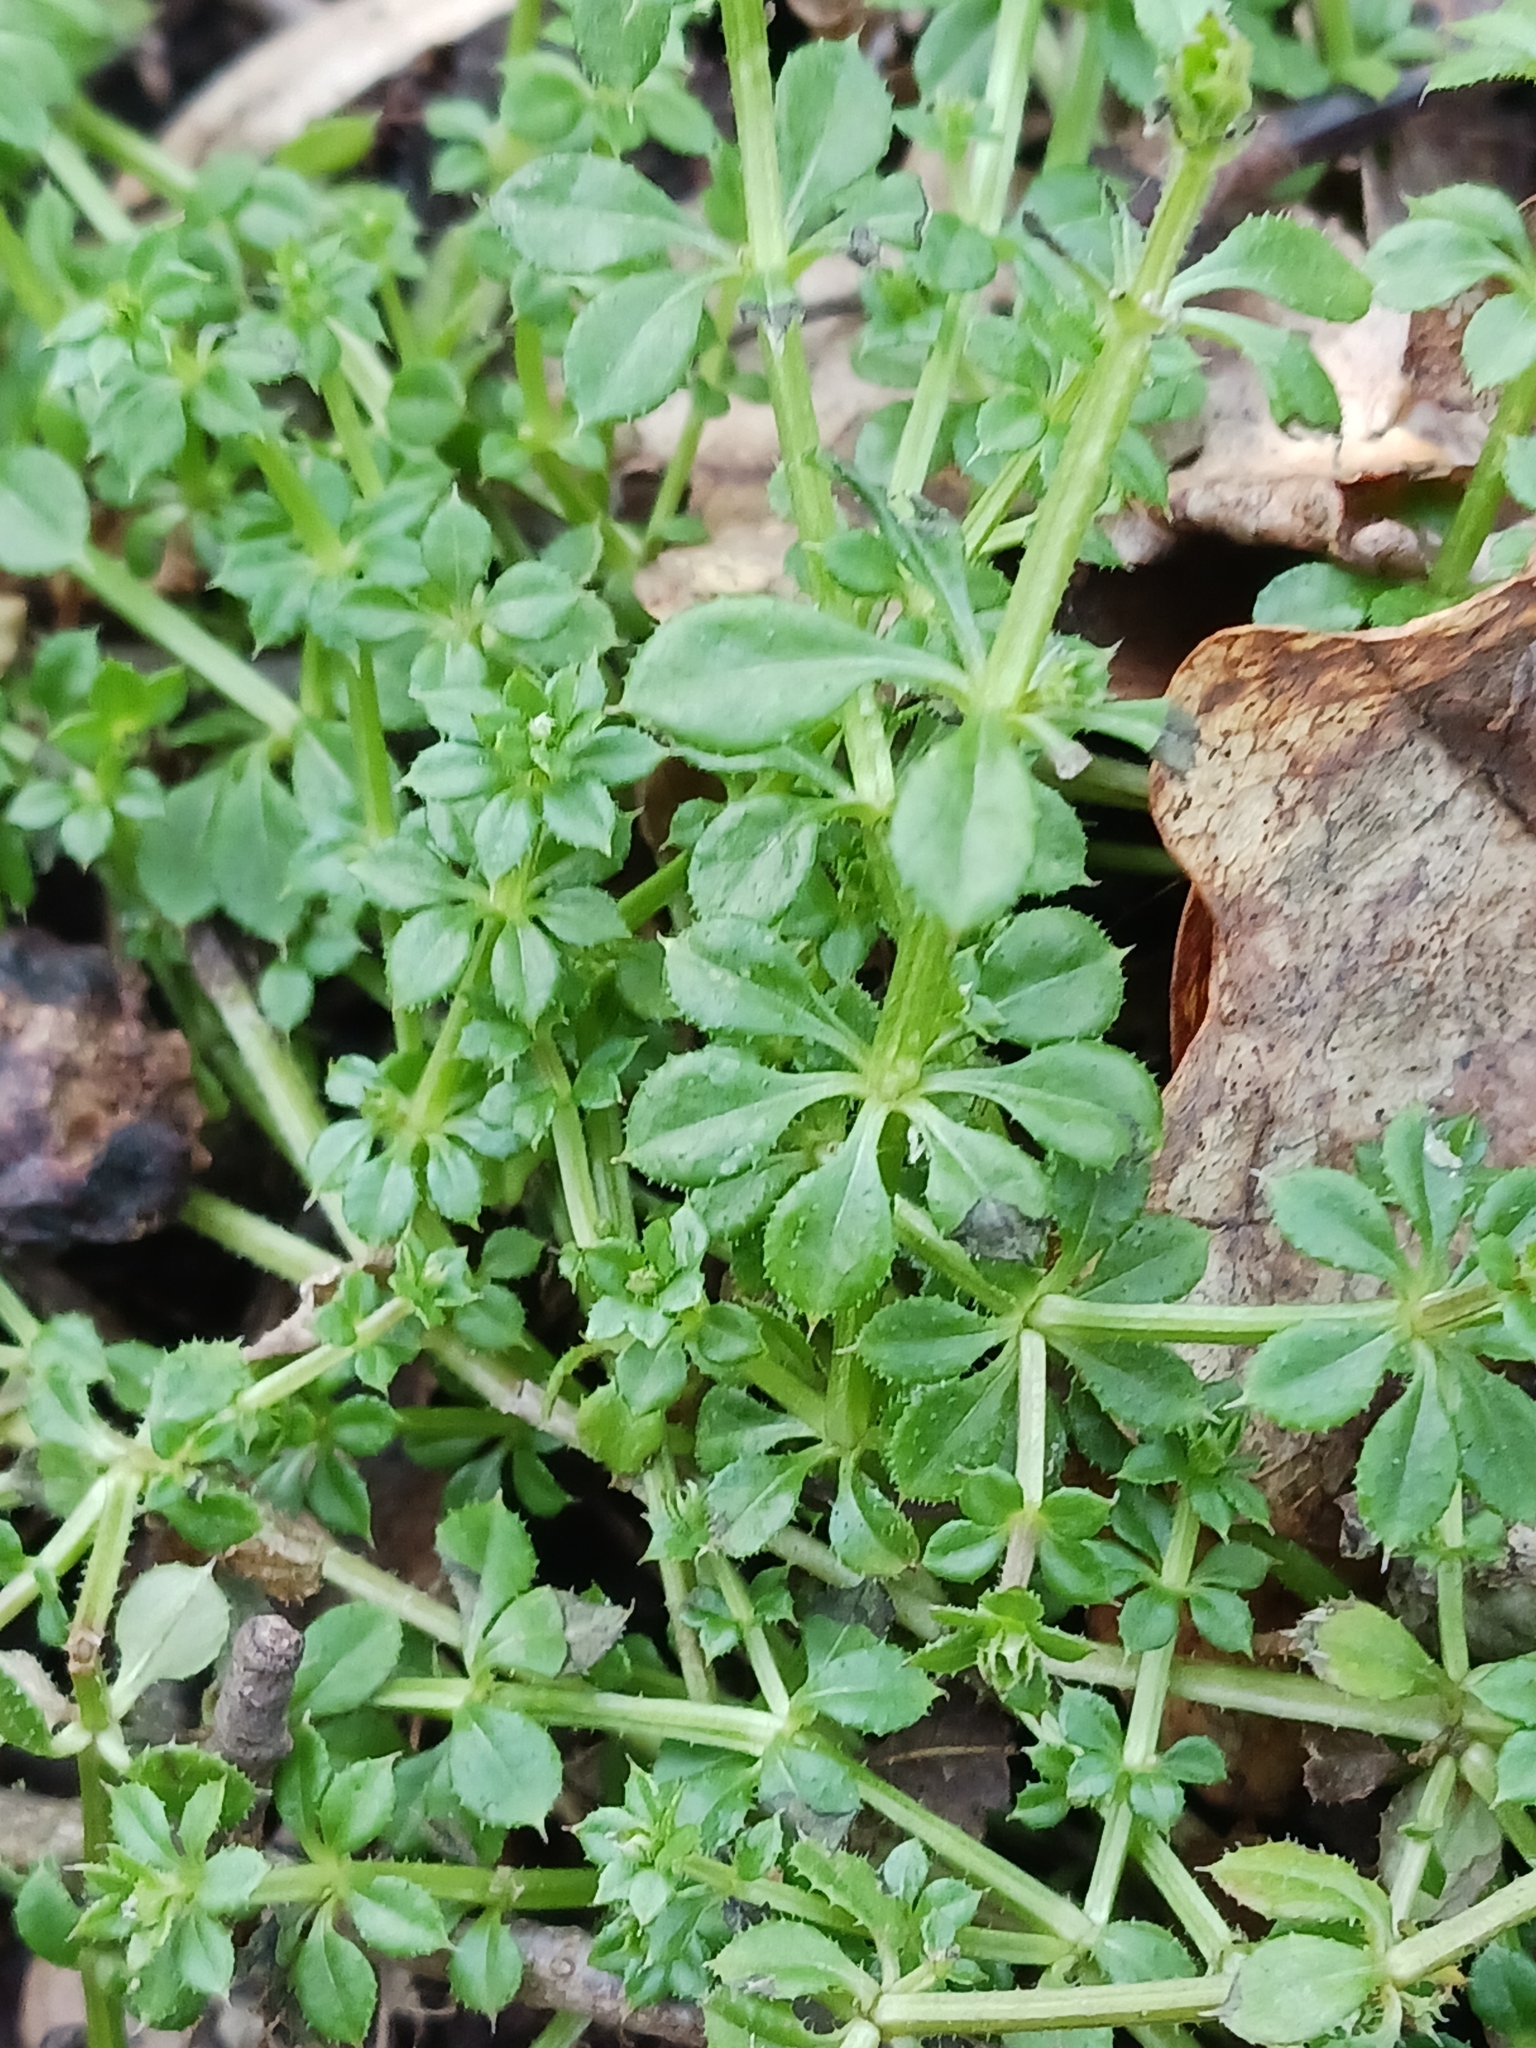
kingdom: Plantae
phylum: Tracheophyta
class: Magnoliopsida
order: Gentianales
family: Rubiaceae
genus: Galium
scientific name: Galium aparine
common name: Cleavers
